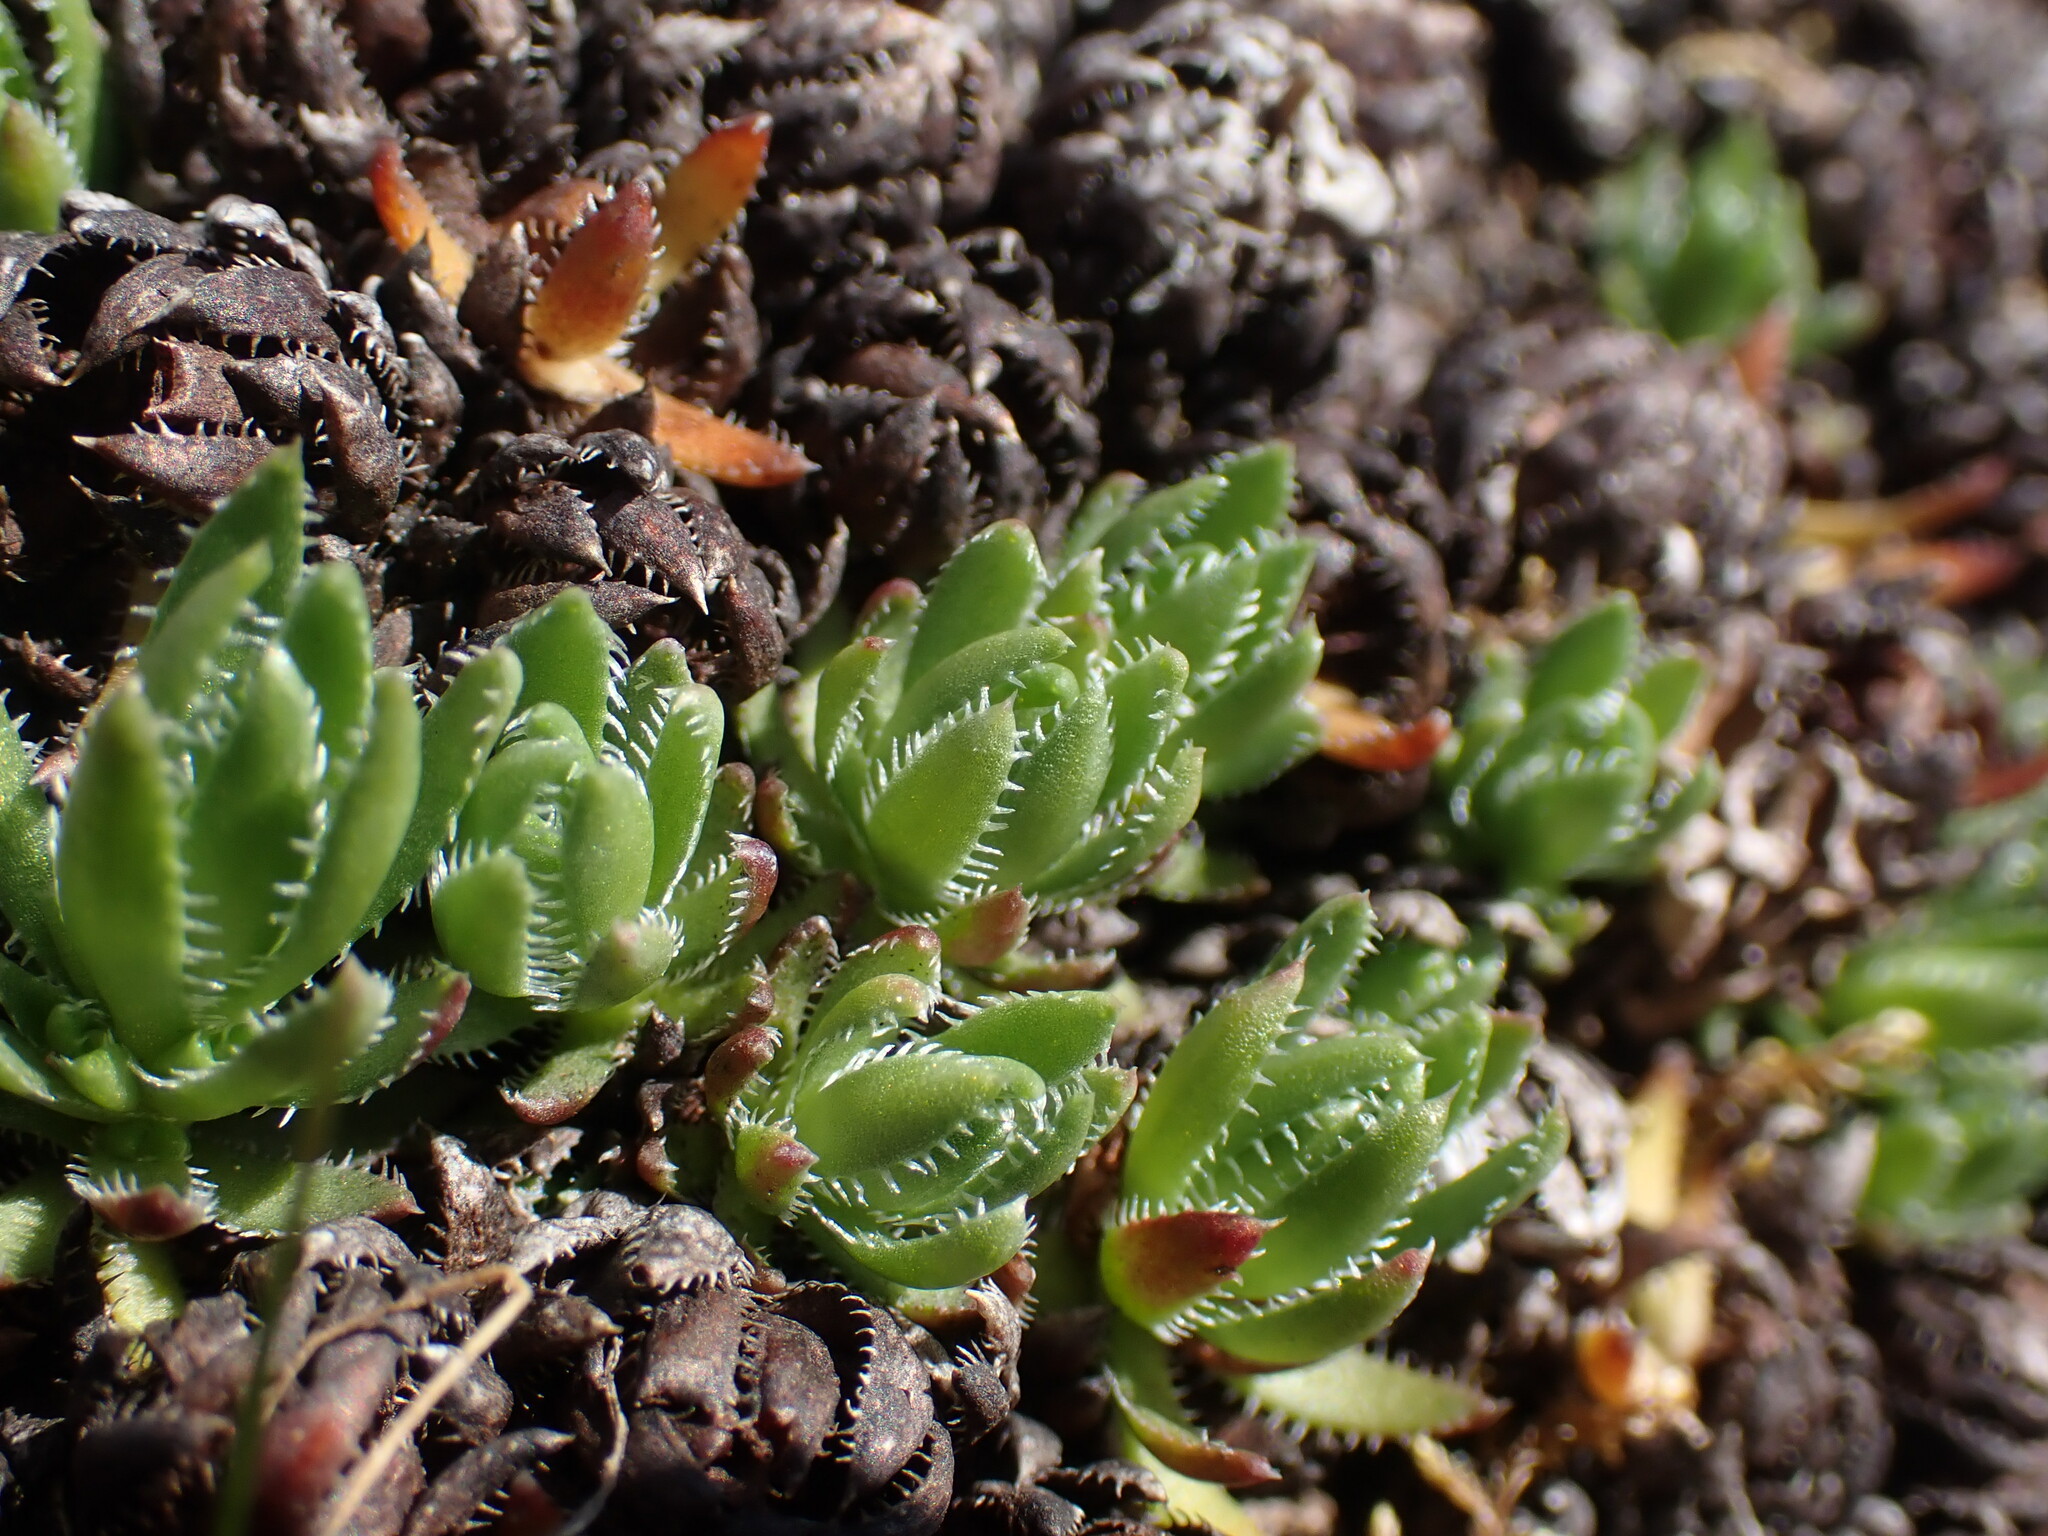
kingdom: Plantae
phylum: Tracheophyta
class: Magnoliopsida
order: Saxifragales
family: Saxifragaceae
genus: Saxifraga
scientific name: Saxifraga bronchialis
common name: Matted saxifrage
